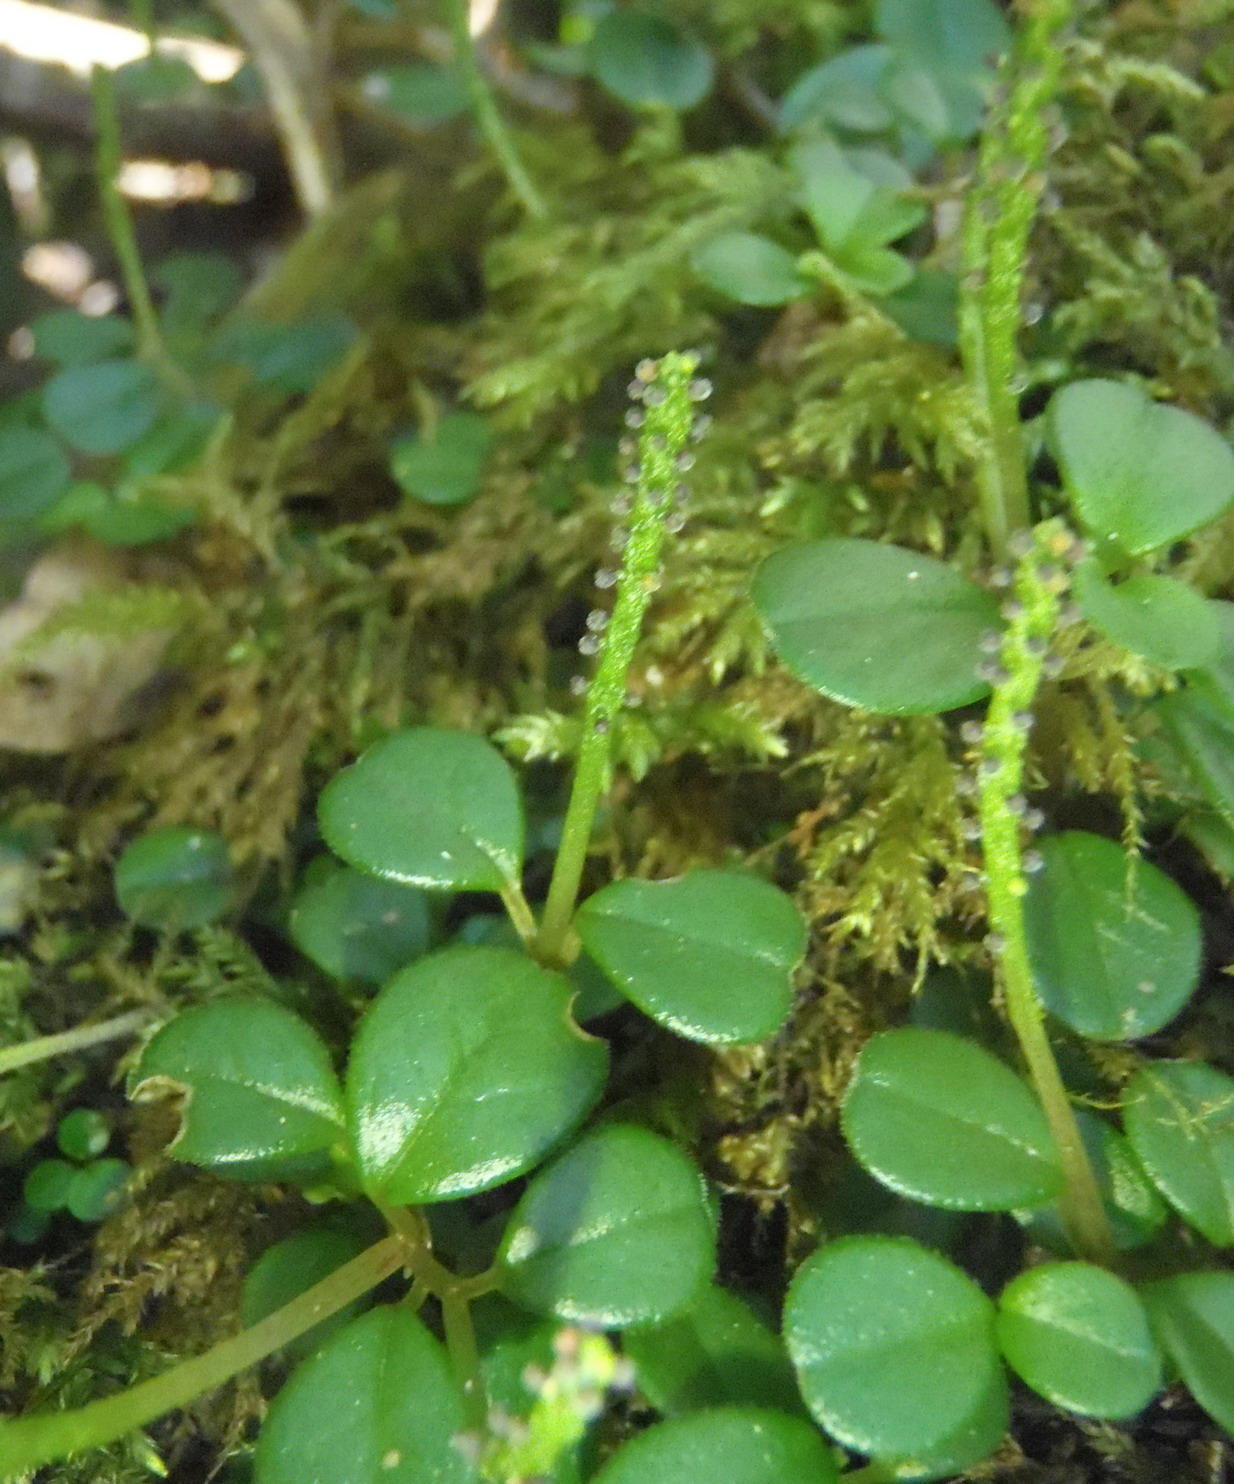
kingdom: Plantae
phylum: Tracheophyta
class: Magnoliopsida
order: Piperales
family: Piperaceae
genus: Peperomia
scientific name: Peperomia retusa
